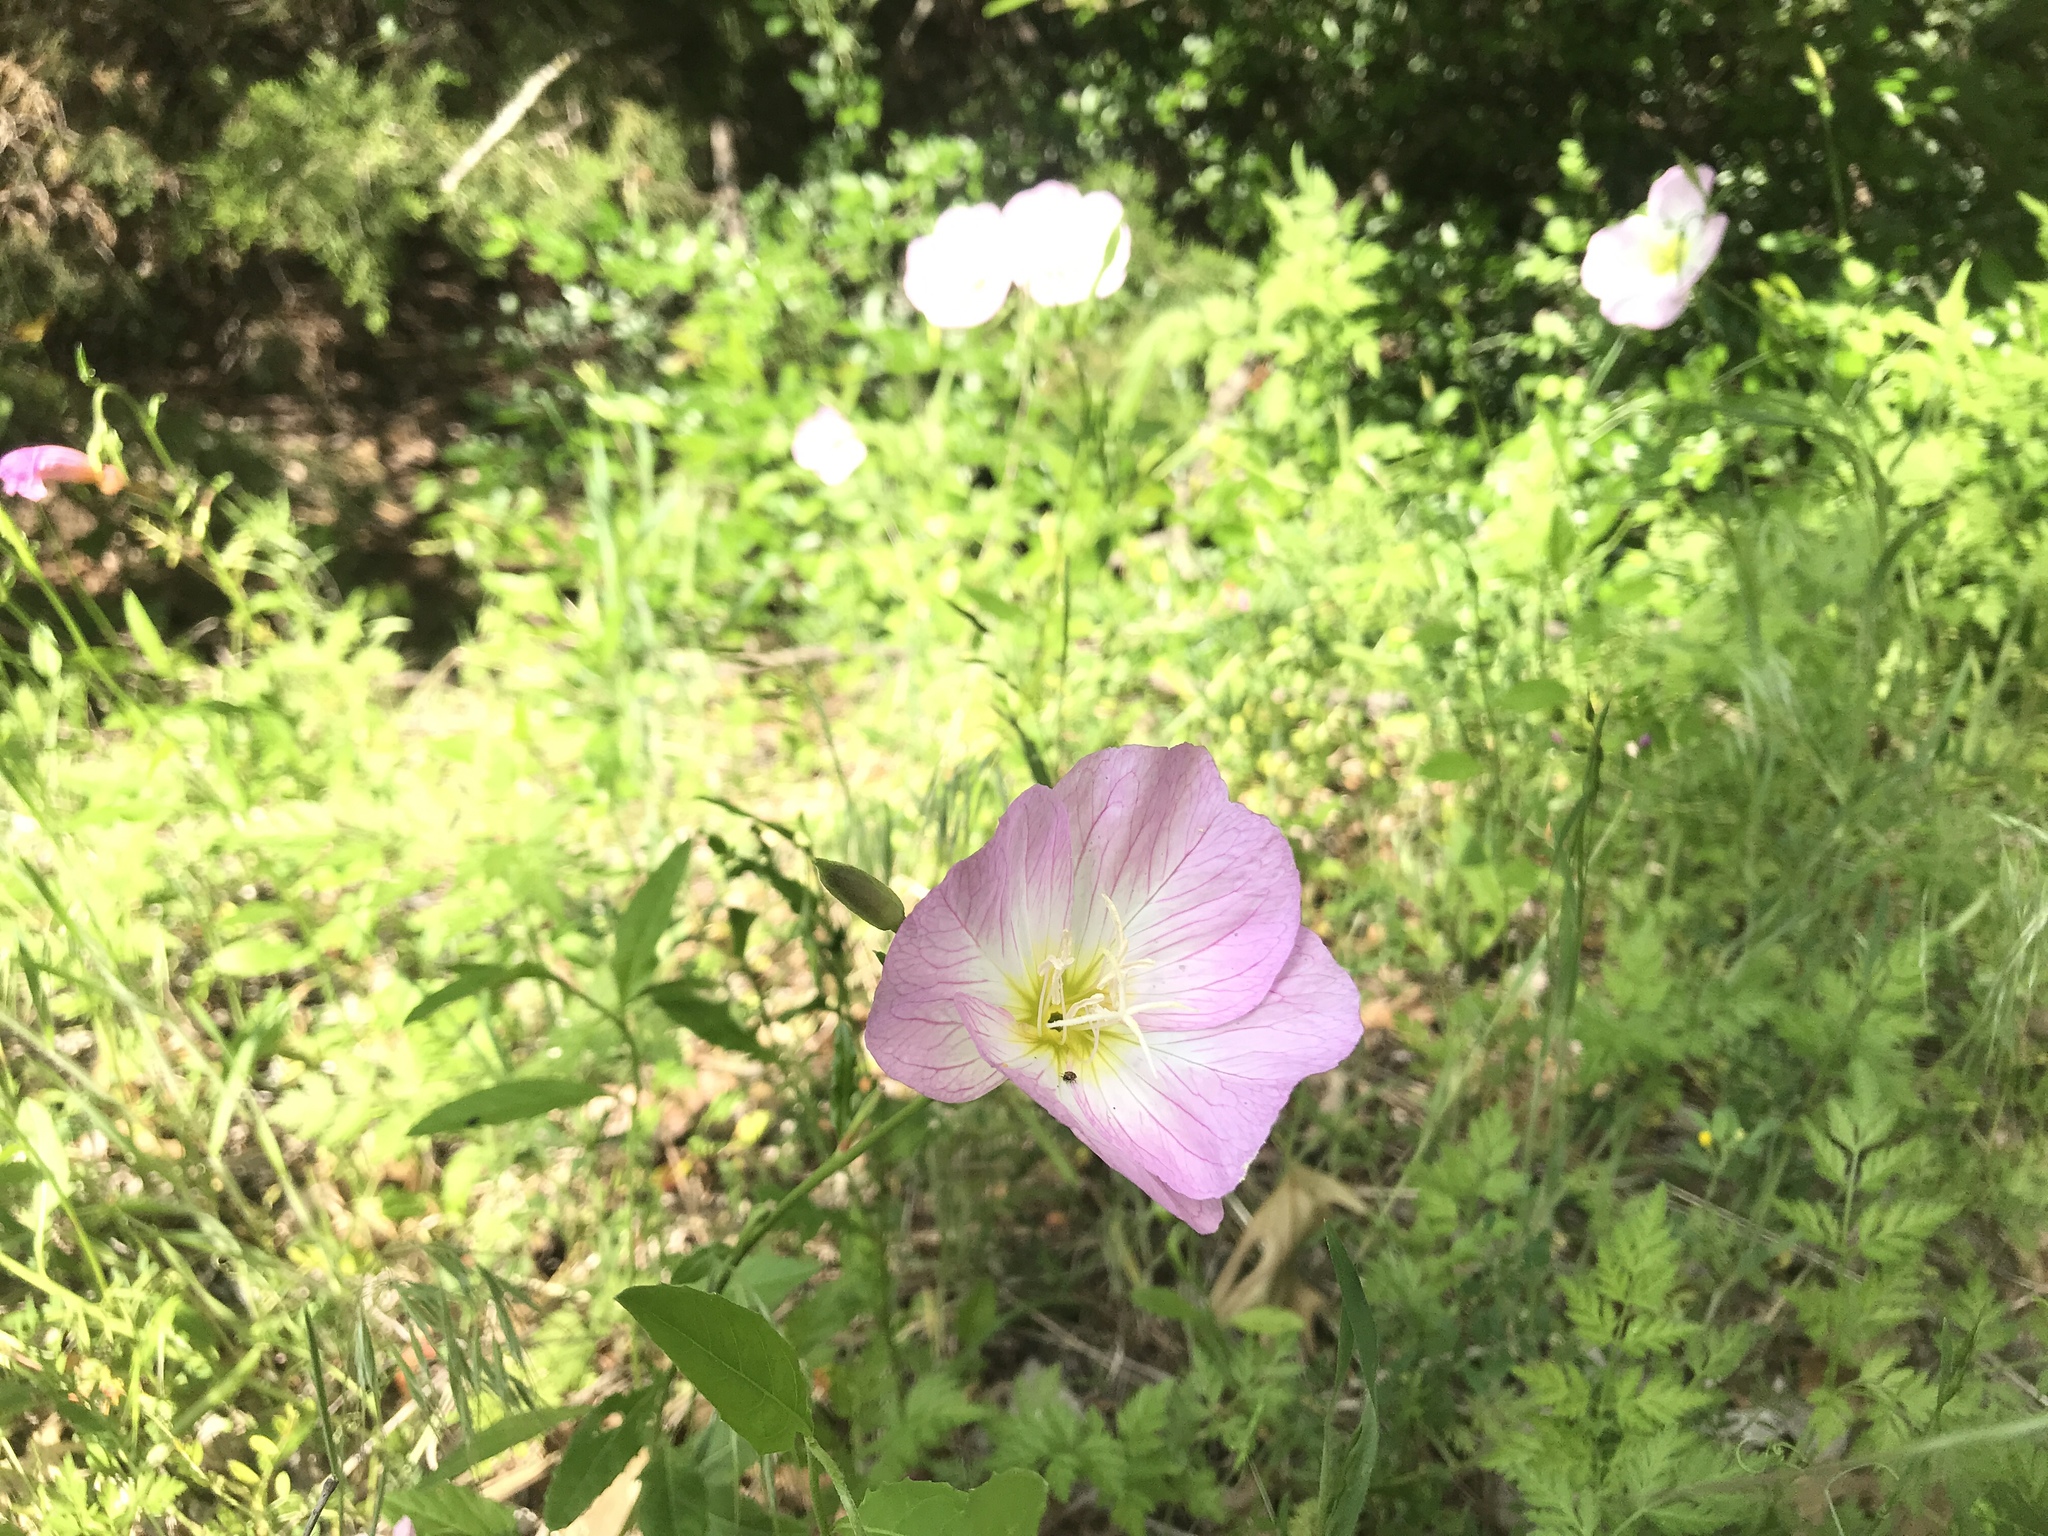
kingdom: Plantae
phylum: Tracheophyta
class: Magnoliopsida
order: Myrtales
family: Onagraceae
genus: Oenothera
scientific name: Oenothera speciosa
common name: White evening-primrose
